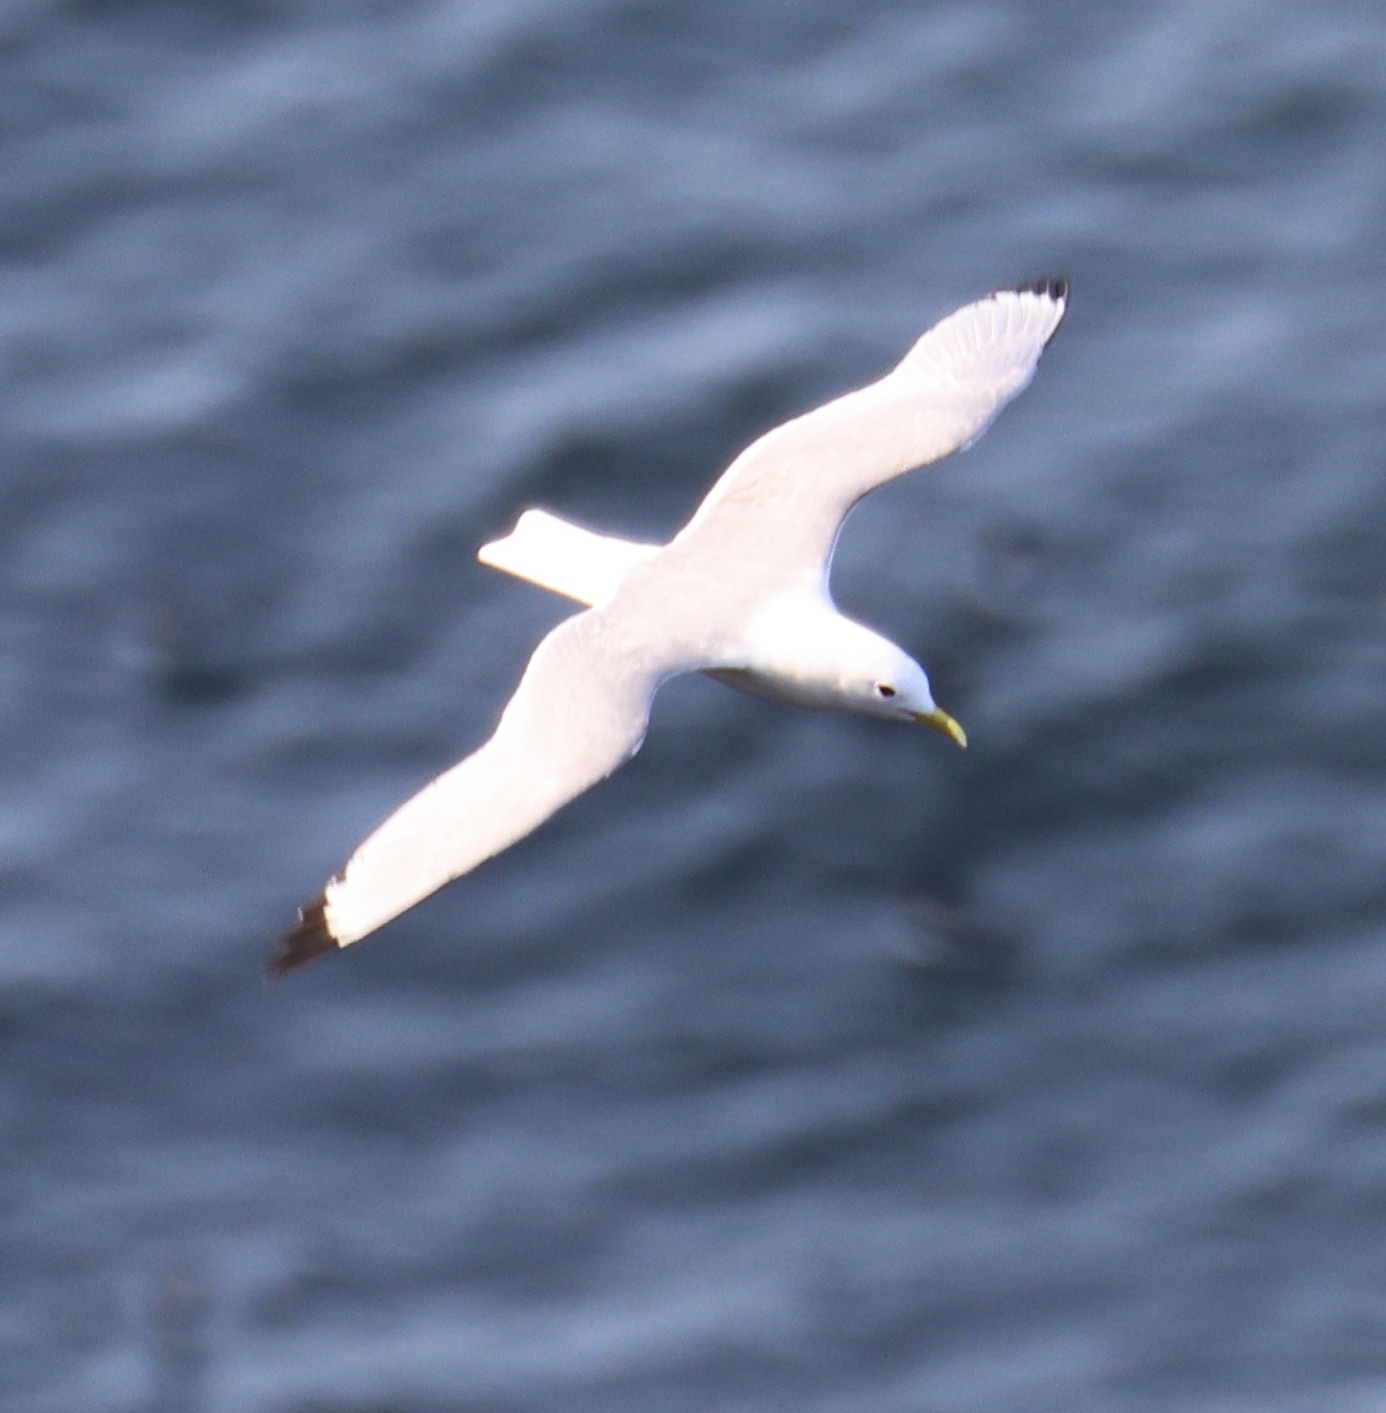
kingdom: Animalia
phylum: Chordata
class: Aves
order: Charadriiformes
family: Laridae
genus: Rissa
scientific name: Rissa tridactyla
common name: Black-legged kittiwake
